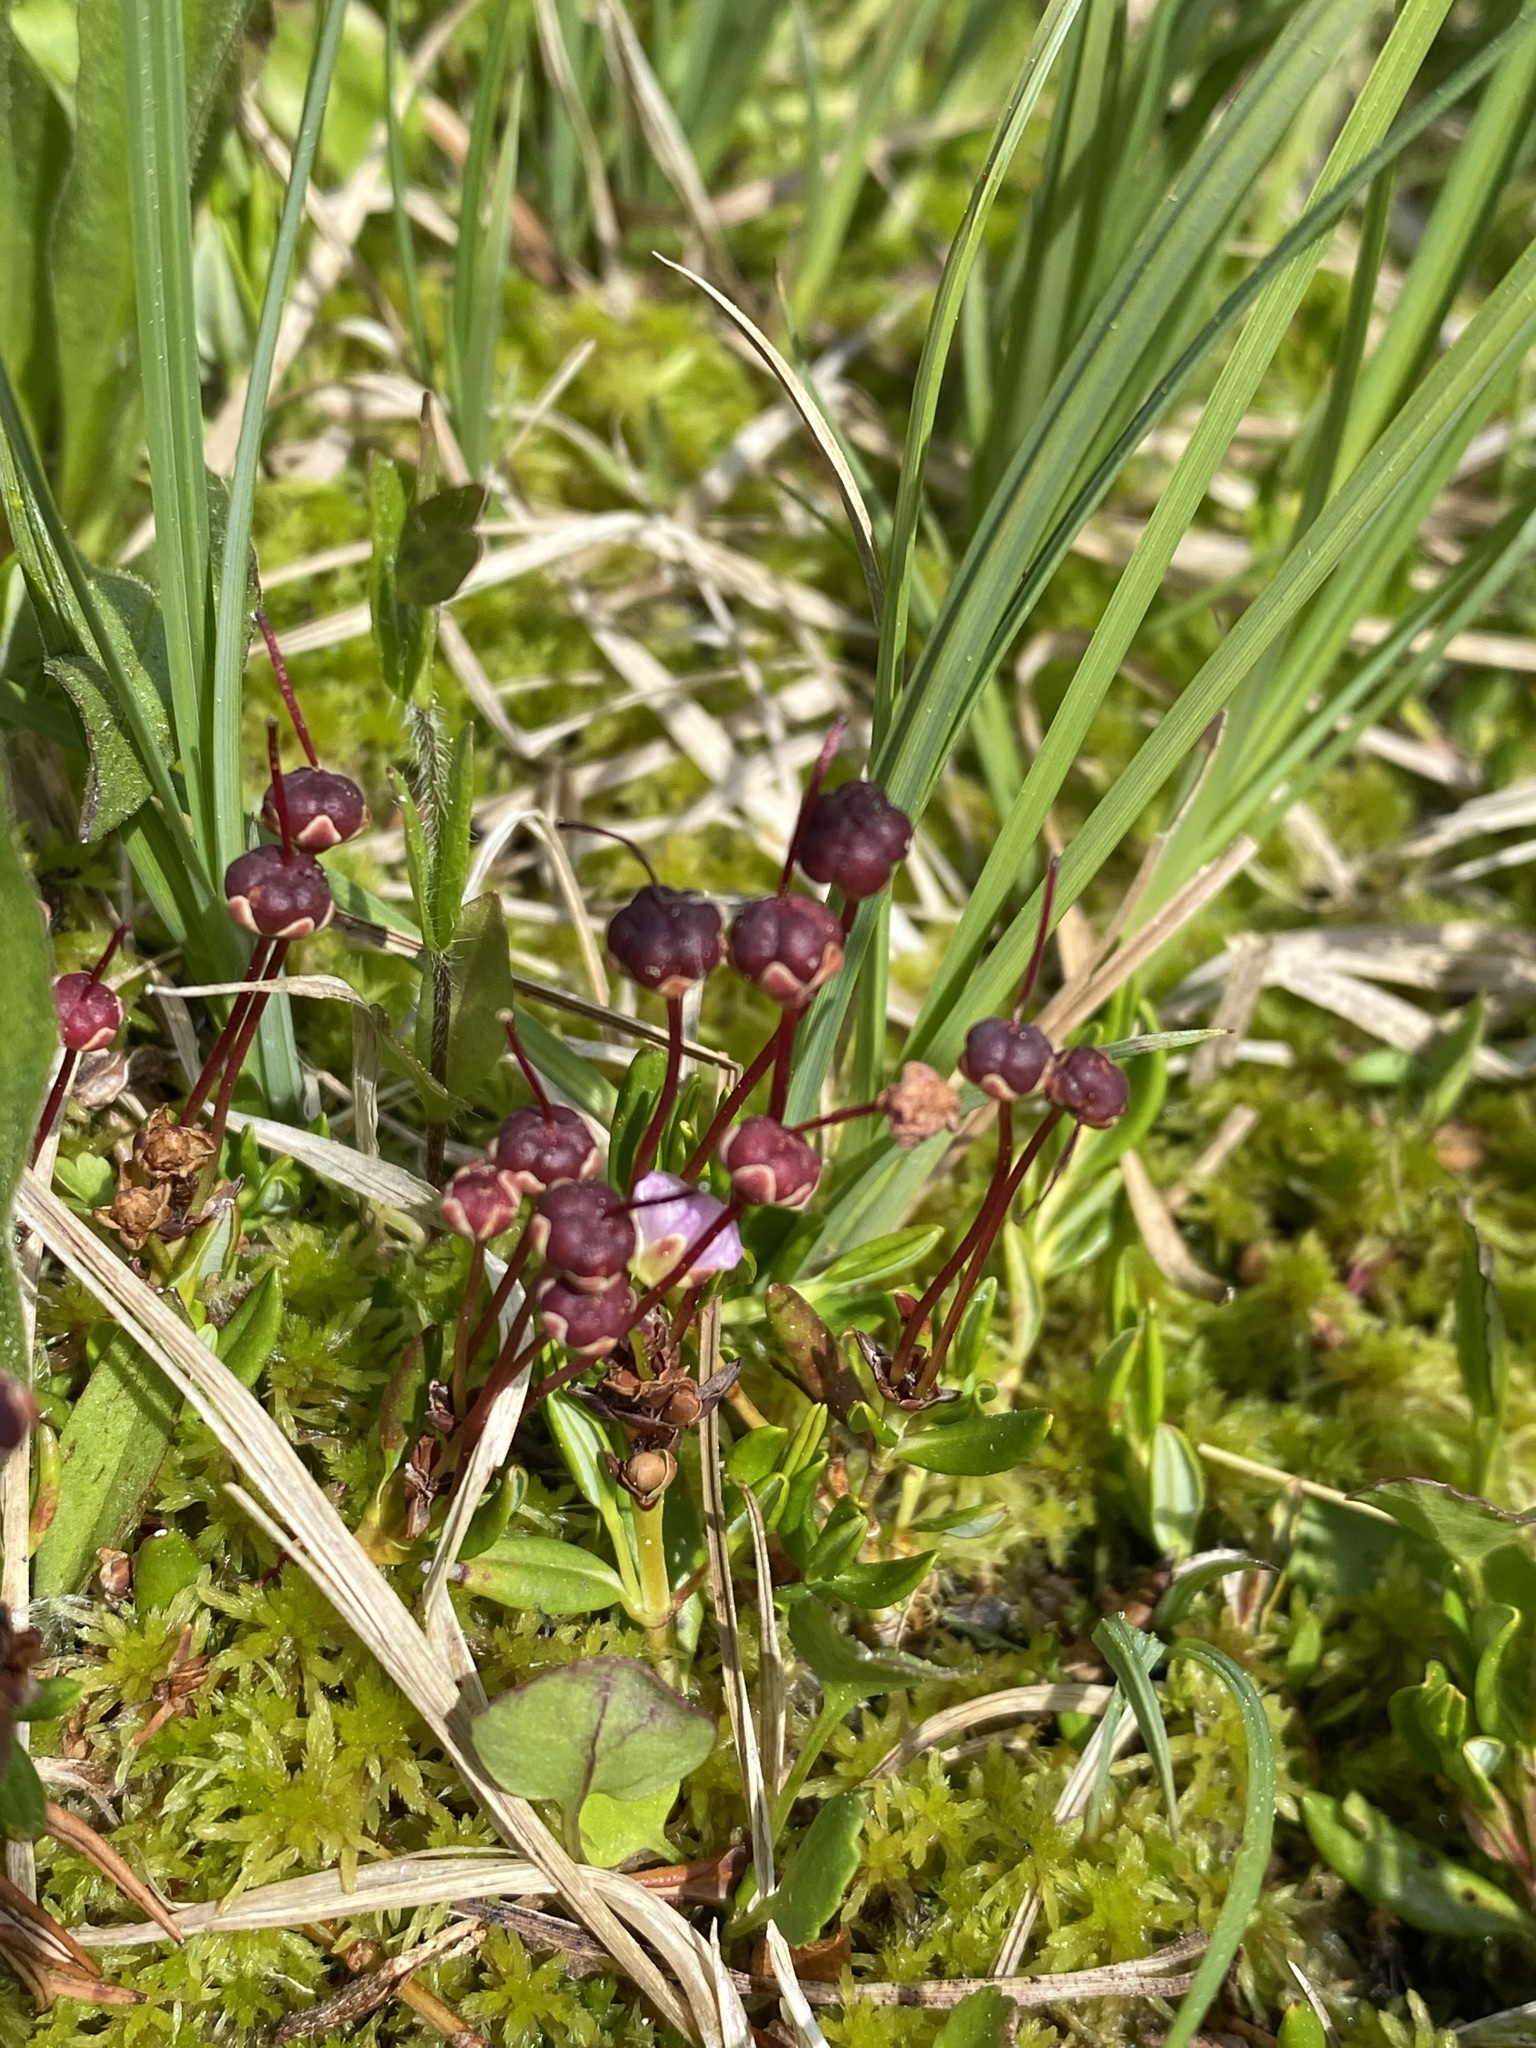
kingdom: Plantae
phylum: Tracheophyta
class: Magnoliopsida
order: Ericales
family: Ericaceae
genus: Kalmia
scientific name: Kalmia microphylla
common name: Alpine bog laurel
